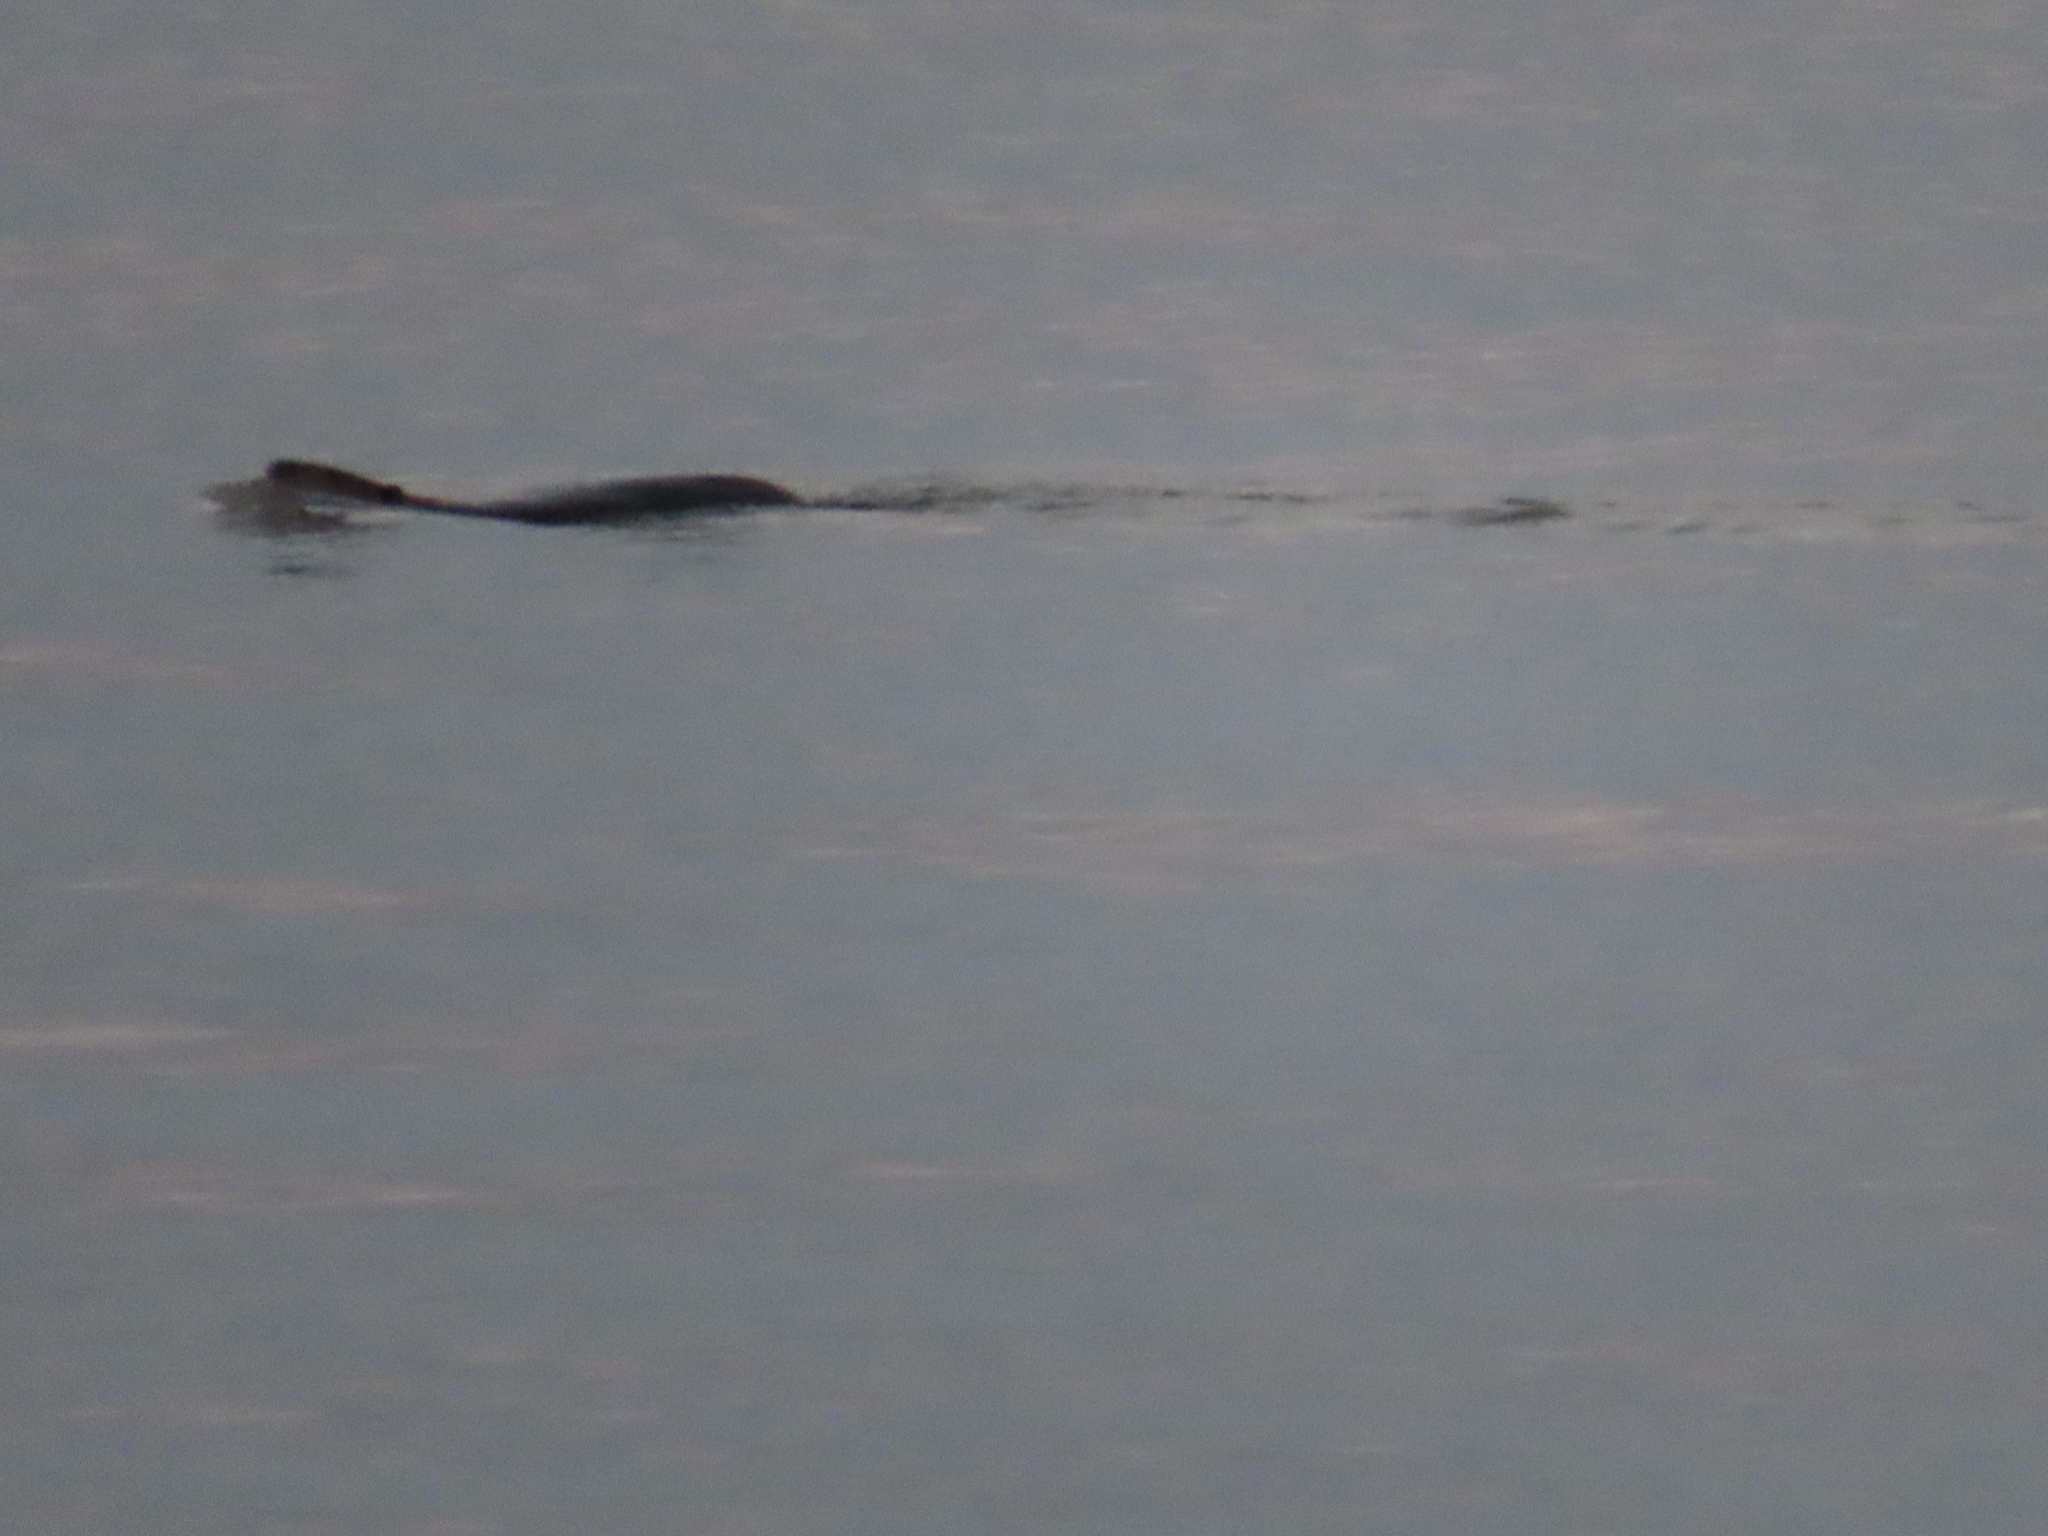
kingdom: Animalia
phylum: Chordata
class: Mammalia
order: Rodentia
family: Castoridae
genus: Castor
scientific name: Castor canadensis
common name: American beaver
